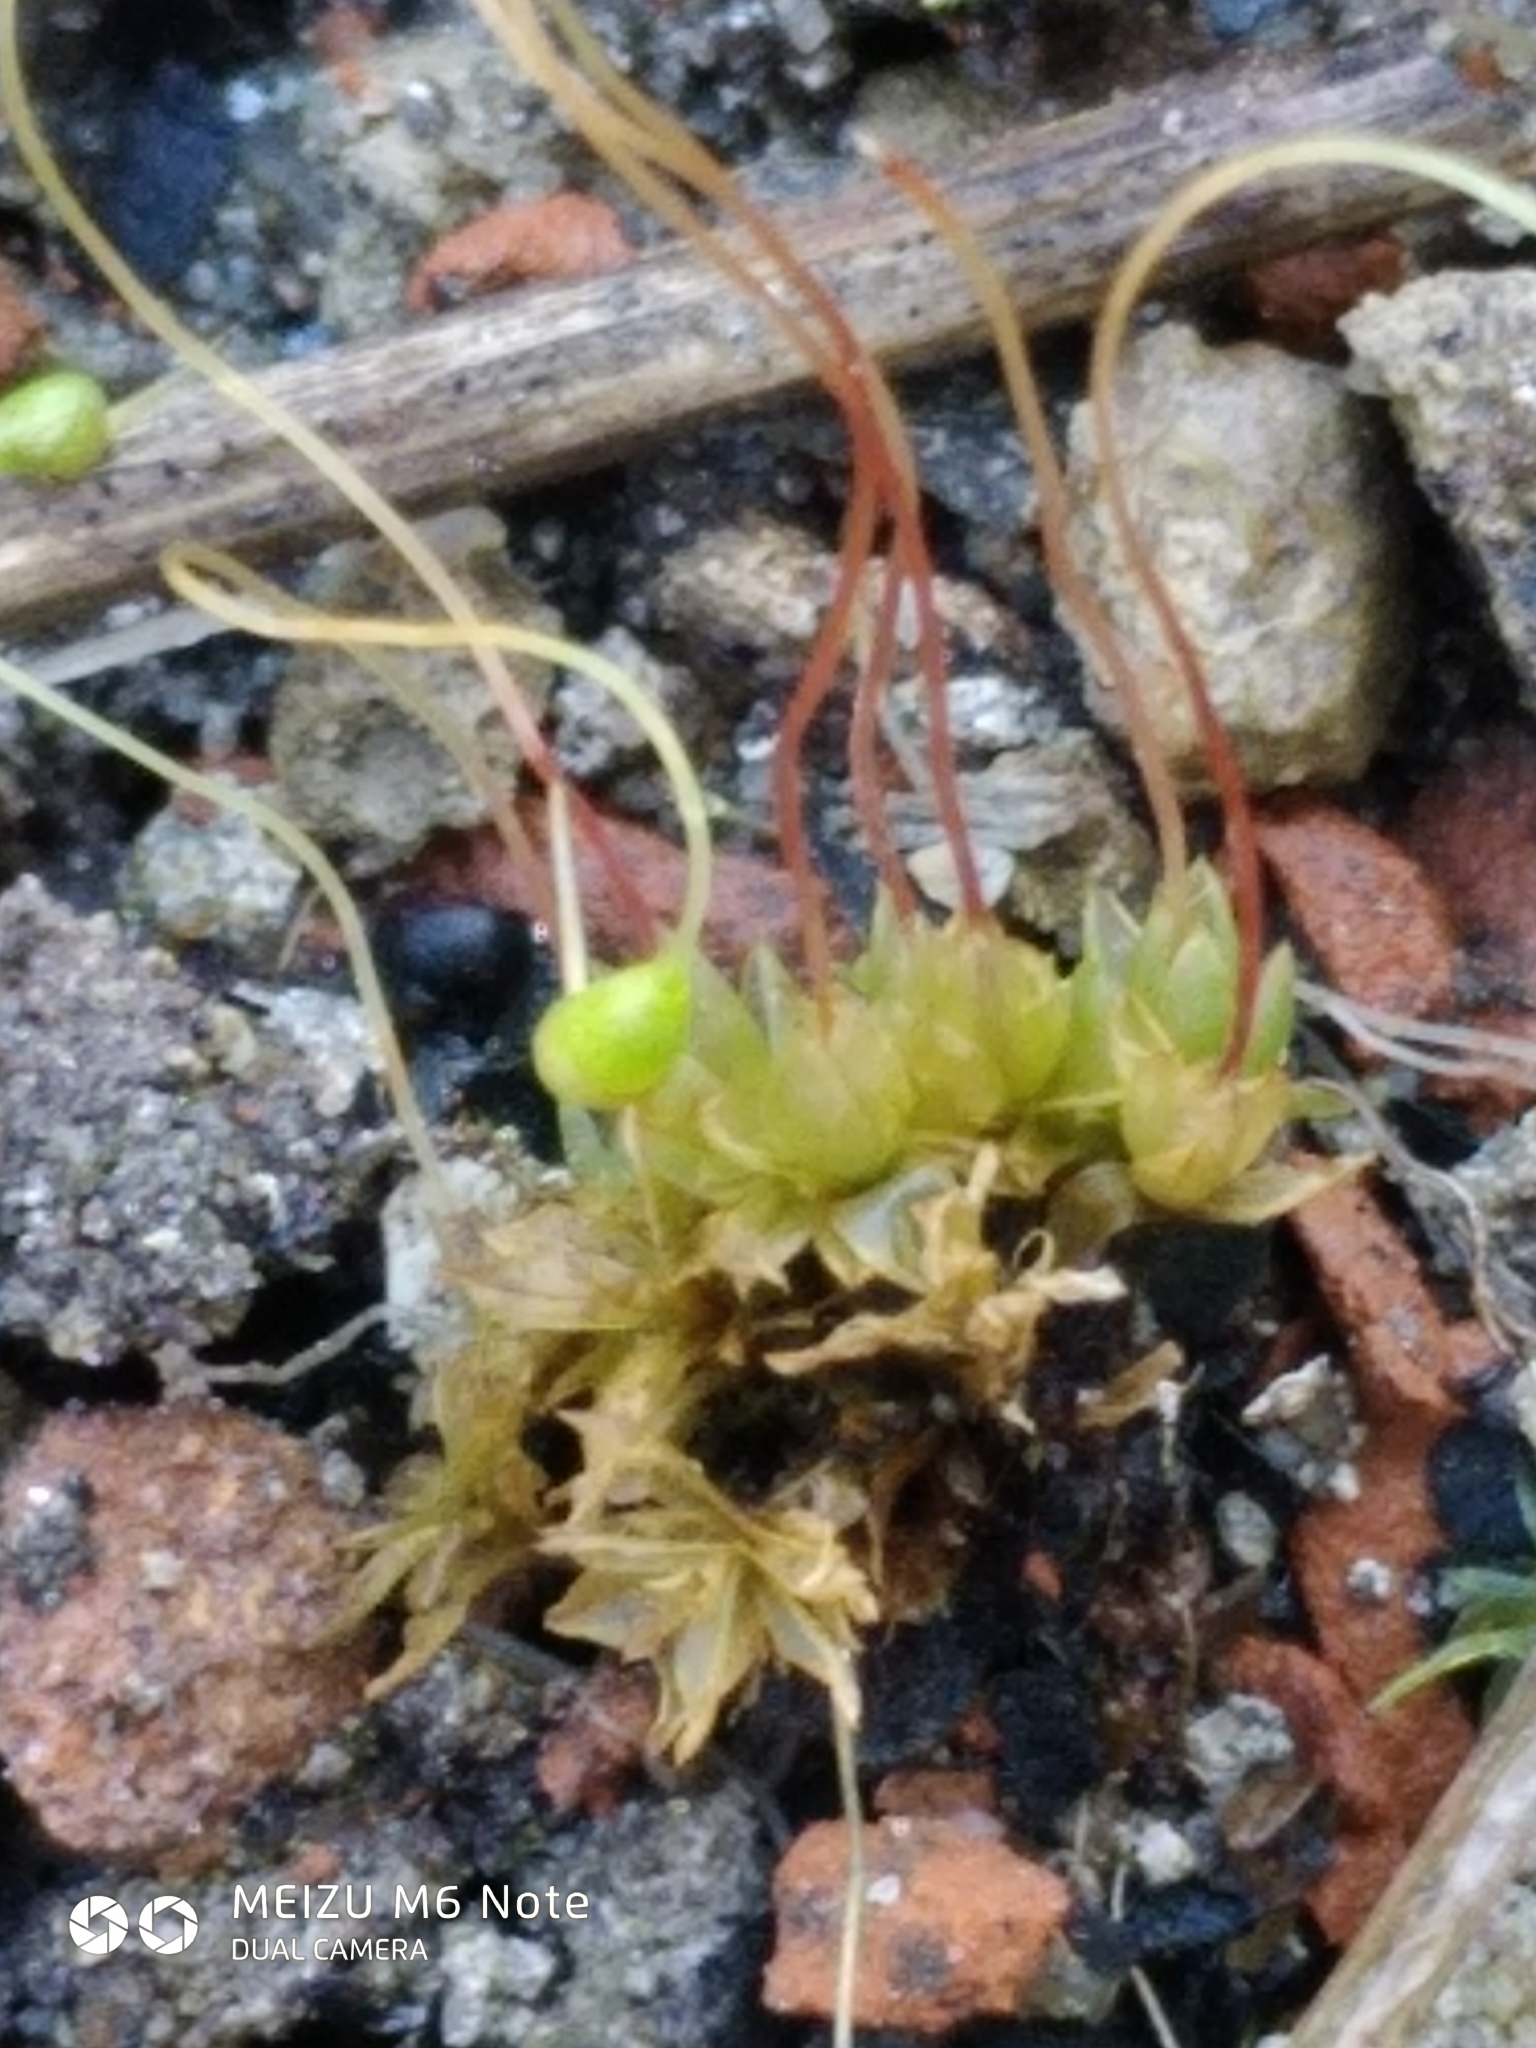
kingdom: Plantae
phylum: Bryophyta
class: Bryopsida
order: Funariales
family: Funariaceae
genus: Funaria
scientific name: Funaria hygrometrica
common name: Common cord moss
